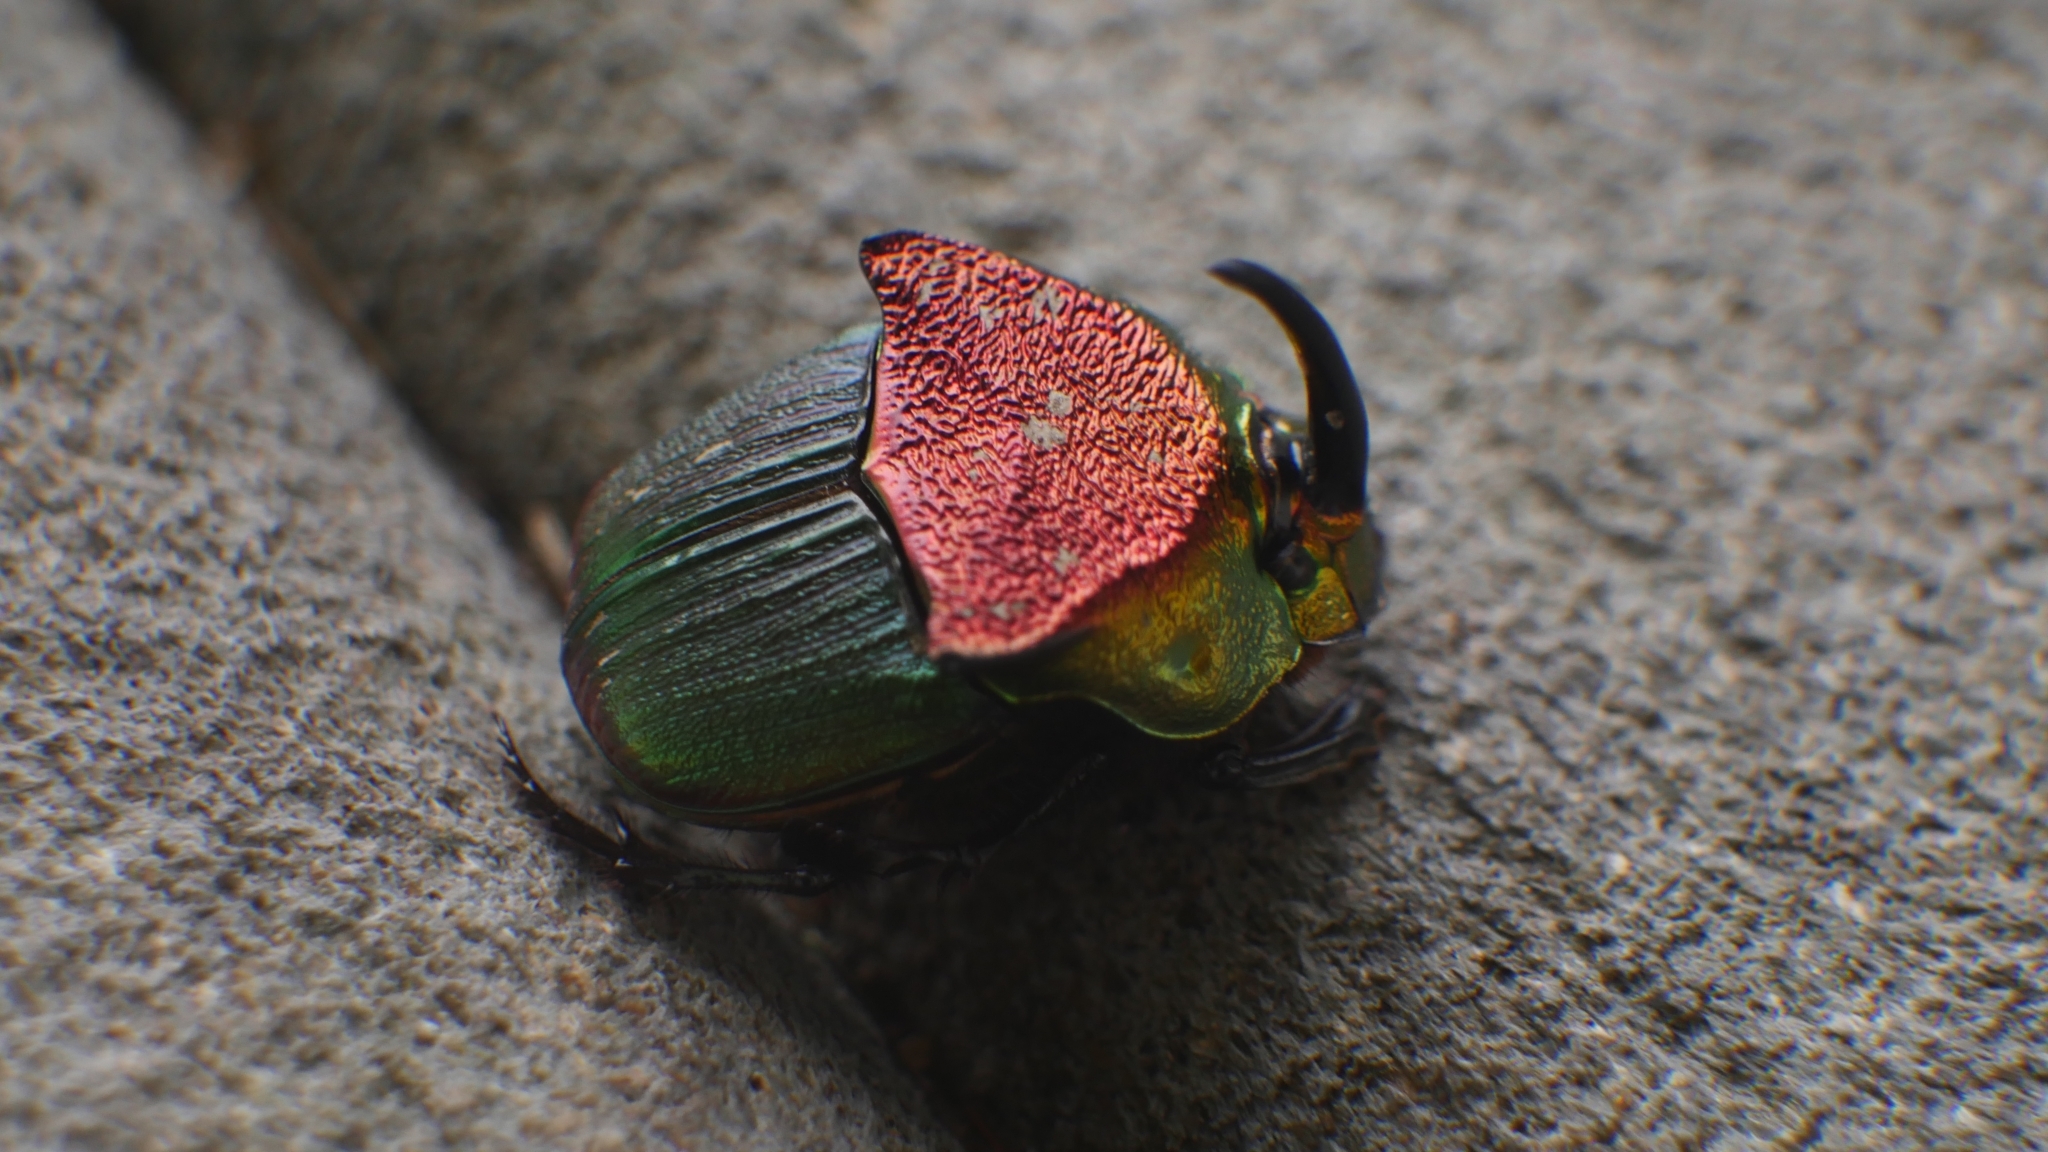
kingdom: Animalia
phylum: Arthropoda
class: Insecta
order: Coleoptera
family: Scarabaeidae
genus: Phanaeus
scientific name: Phanaeus vindex
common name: Rainbow scarab
